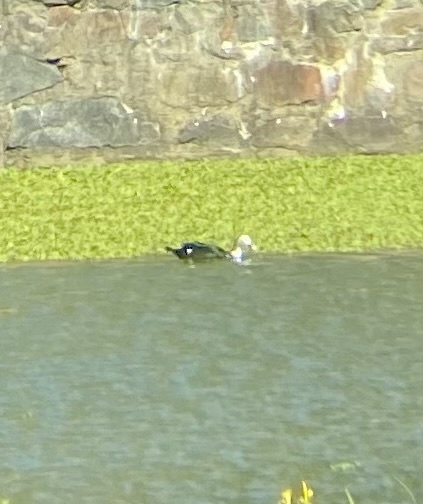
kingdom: Animalia
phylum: Chordata
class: Aves
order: Anseriformes
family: Anatidae
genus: Cairina
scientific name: Cairina moschata
